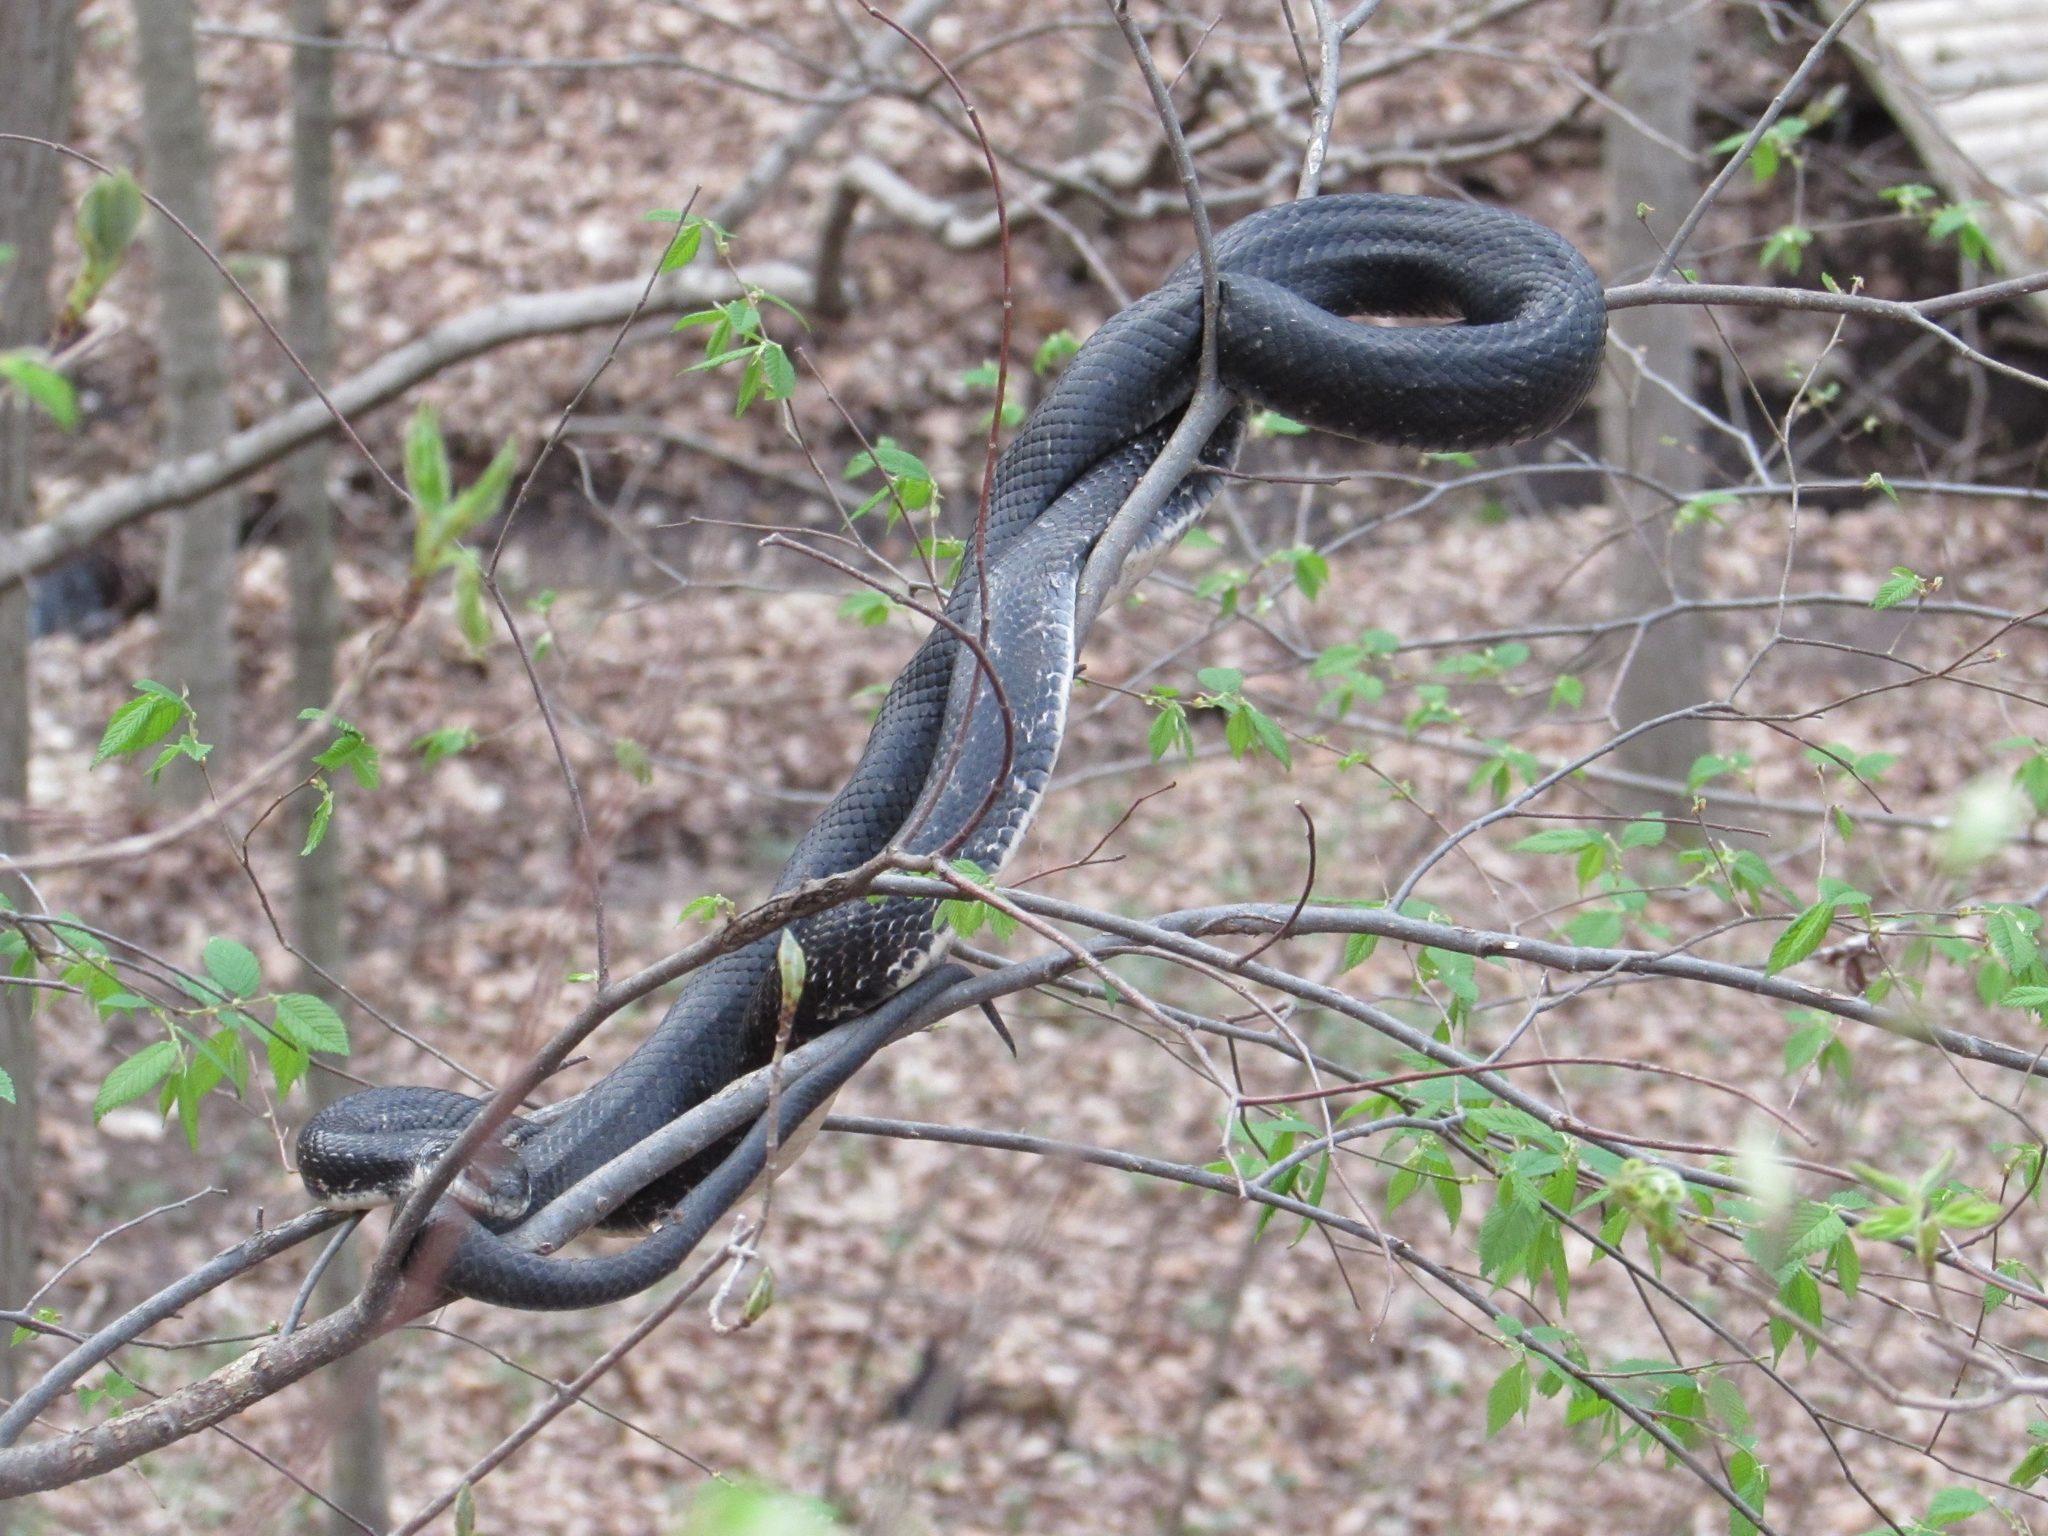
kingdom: Animalia
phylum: Chordata
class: Squamata
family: Colubridae
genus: Pantherophis
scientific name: Pantherophis obsoletus
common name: Black rat snake
